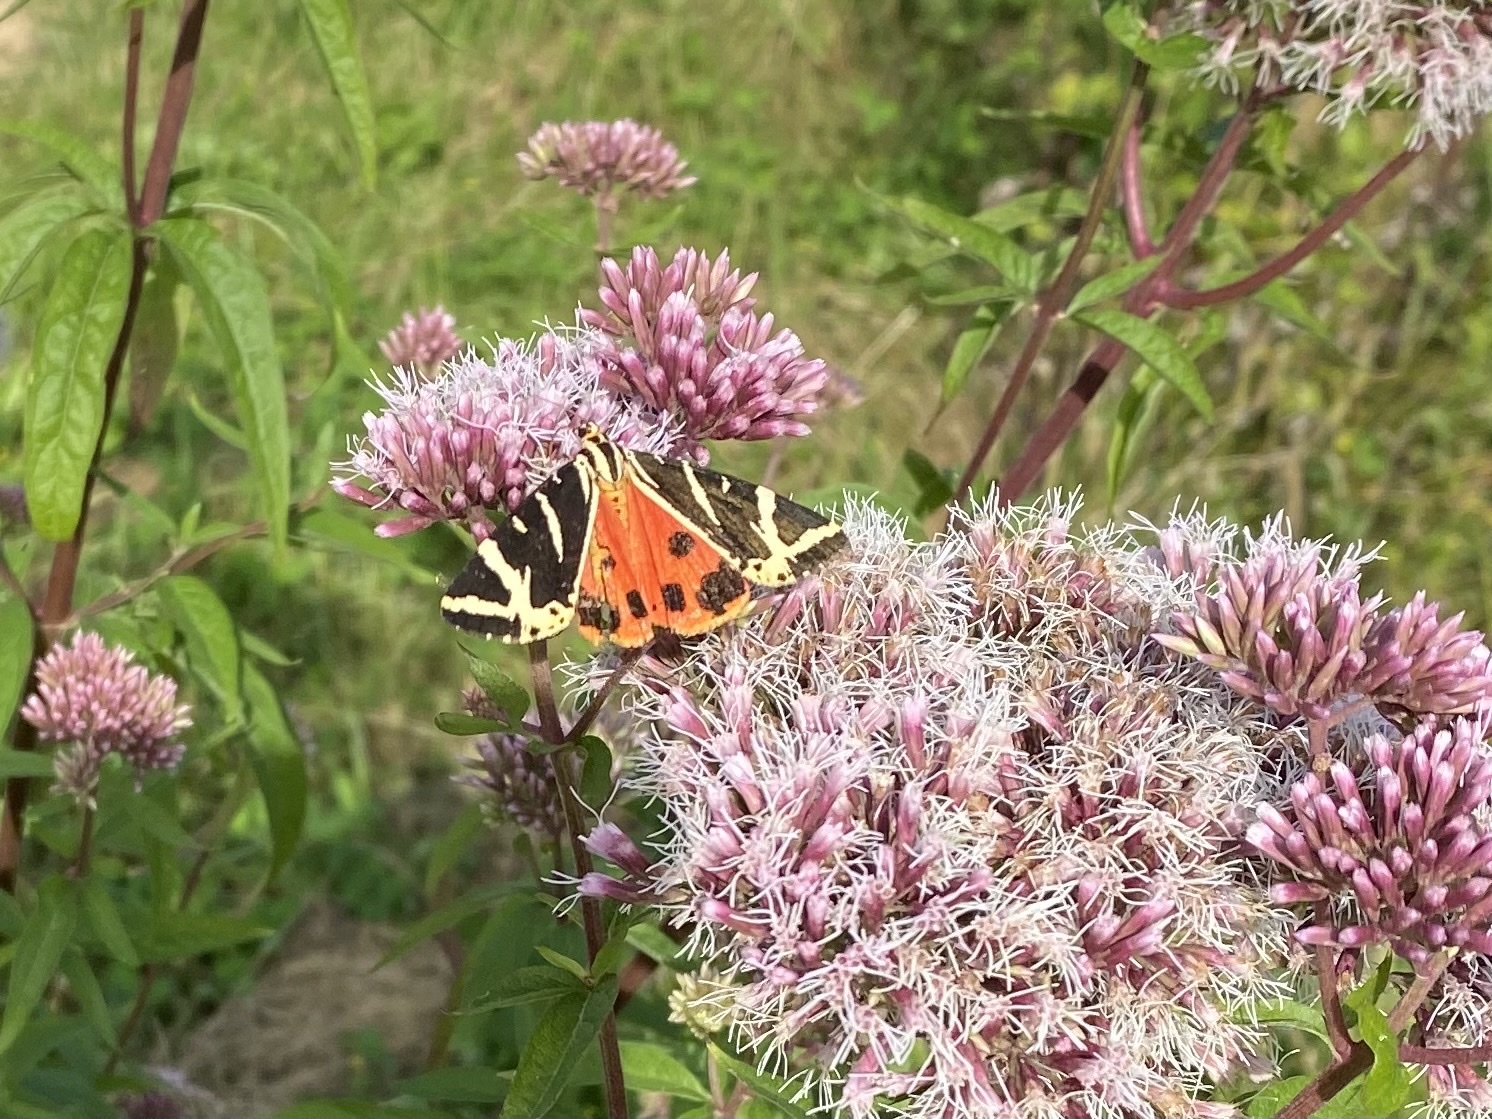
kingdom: Animalia
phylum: Arthropoda
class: Insecta
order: Lepidoptera
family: Erebidae
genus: Euplagia
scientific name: Euplagia quadripunctaria
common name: Jersey tiger
